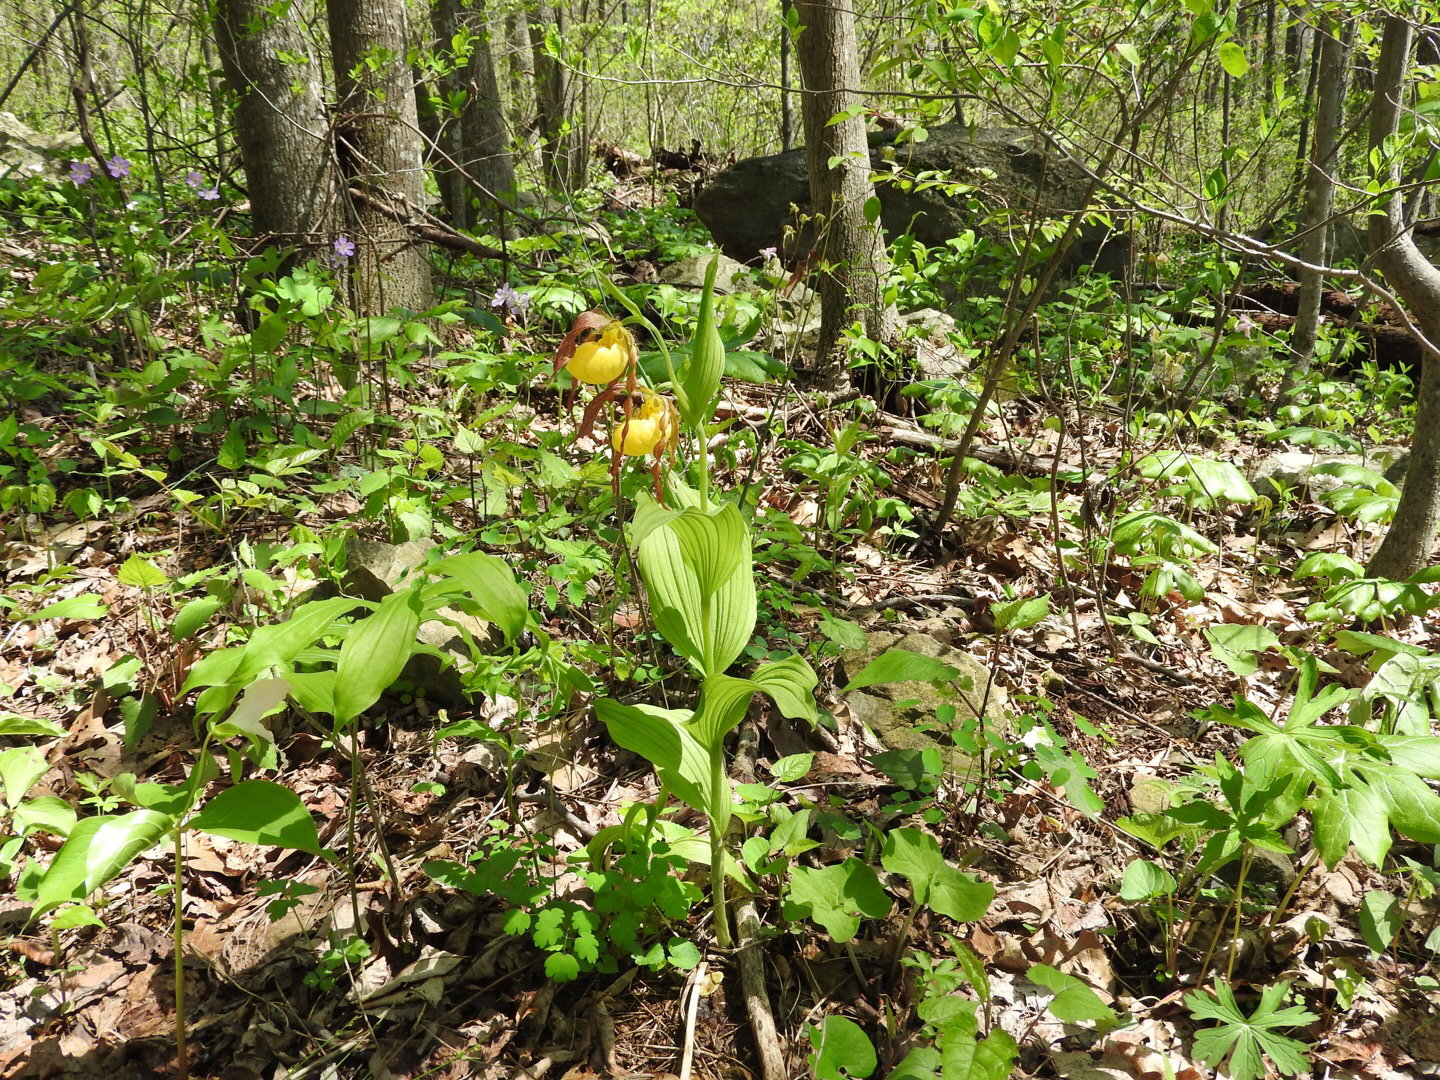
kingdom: Plantae
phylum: Tracheophyta
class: Liliopsida
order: Asparagales
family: Orchidaceae
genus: Cypripedium
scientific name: Cypripedium parviflorum
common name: American yellow lady's-slipper
